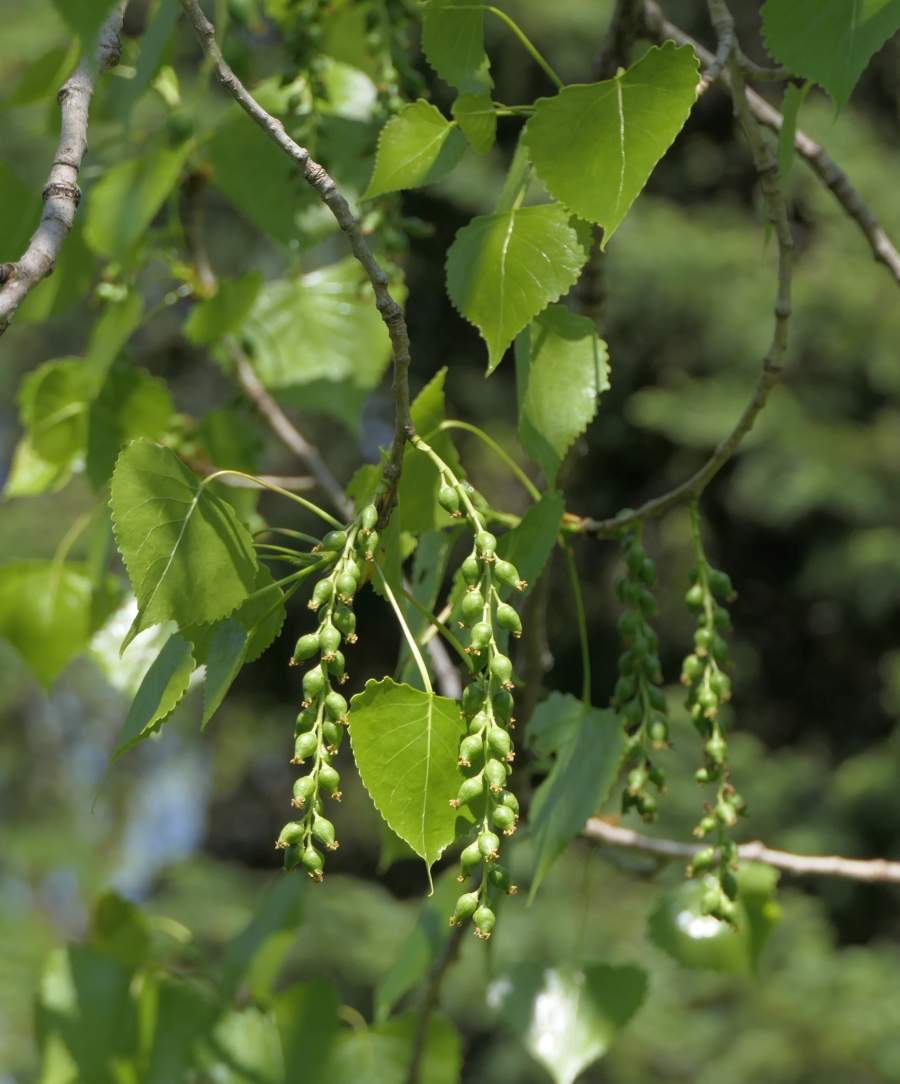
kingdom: Plantae
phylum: Tracheophyta
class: Magnoliopsida
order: Malpighiales
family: Salicaceae
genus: Populus
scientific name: Populus deltoides
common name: Eastern cottonwood
